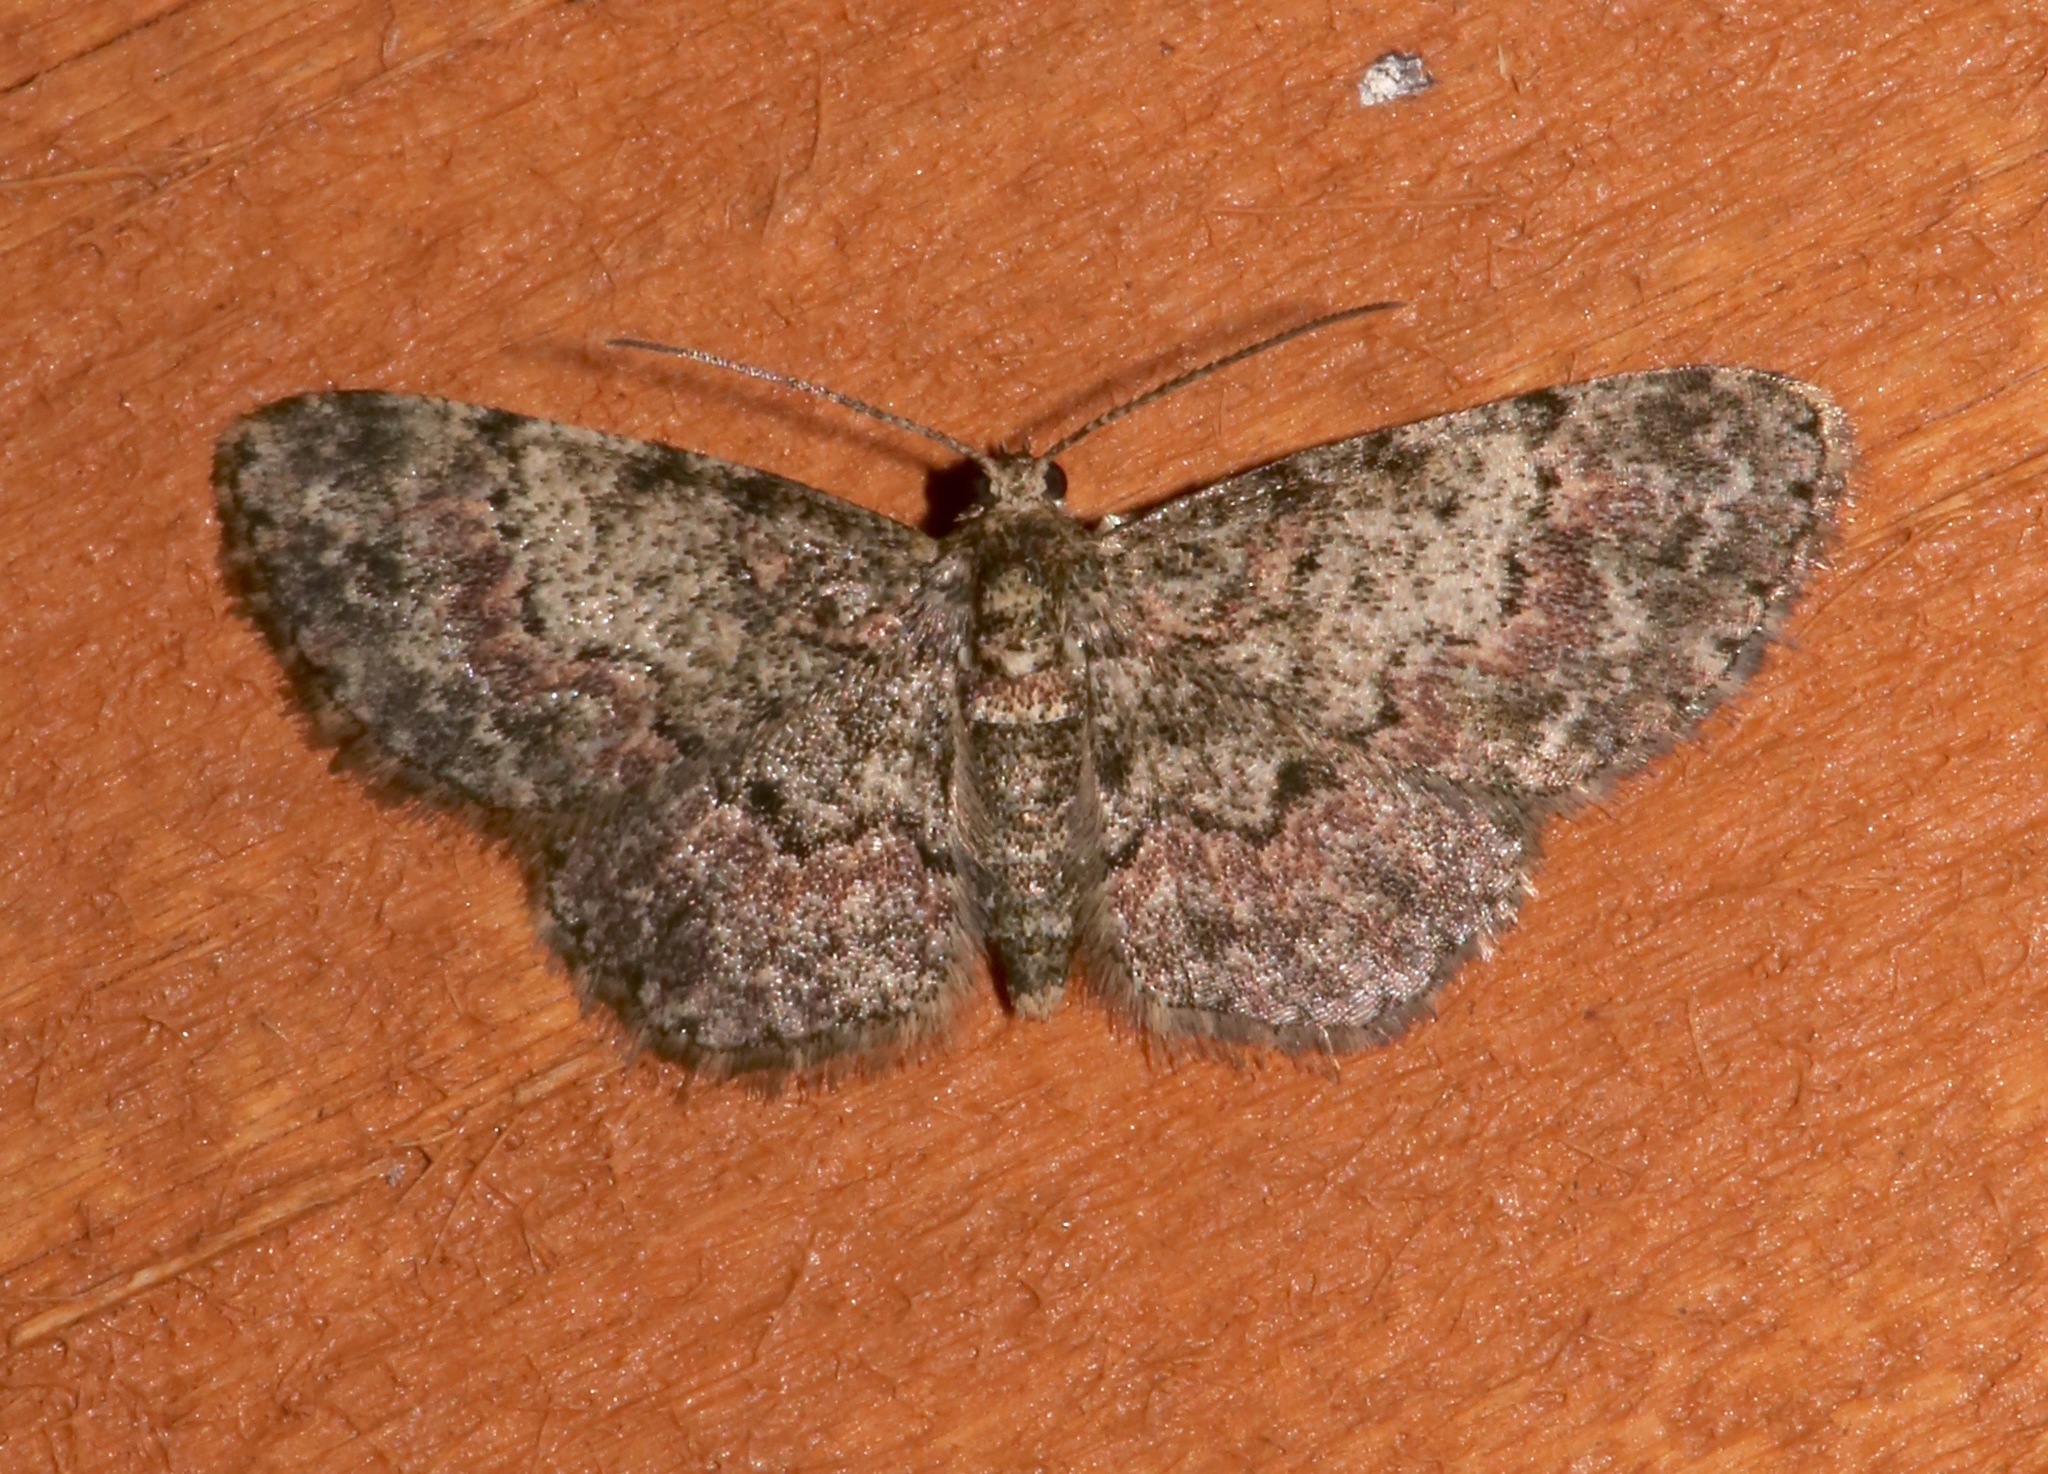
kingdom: Animalia
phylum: Arthropoda
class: Insecta
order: Lepidoptera
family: Geometridae
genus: Glenoides
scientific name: Glenoides texanaria
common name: Texas gray
